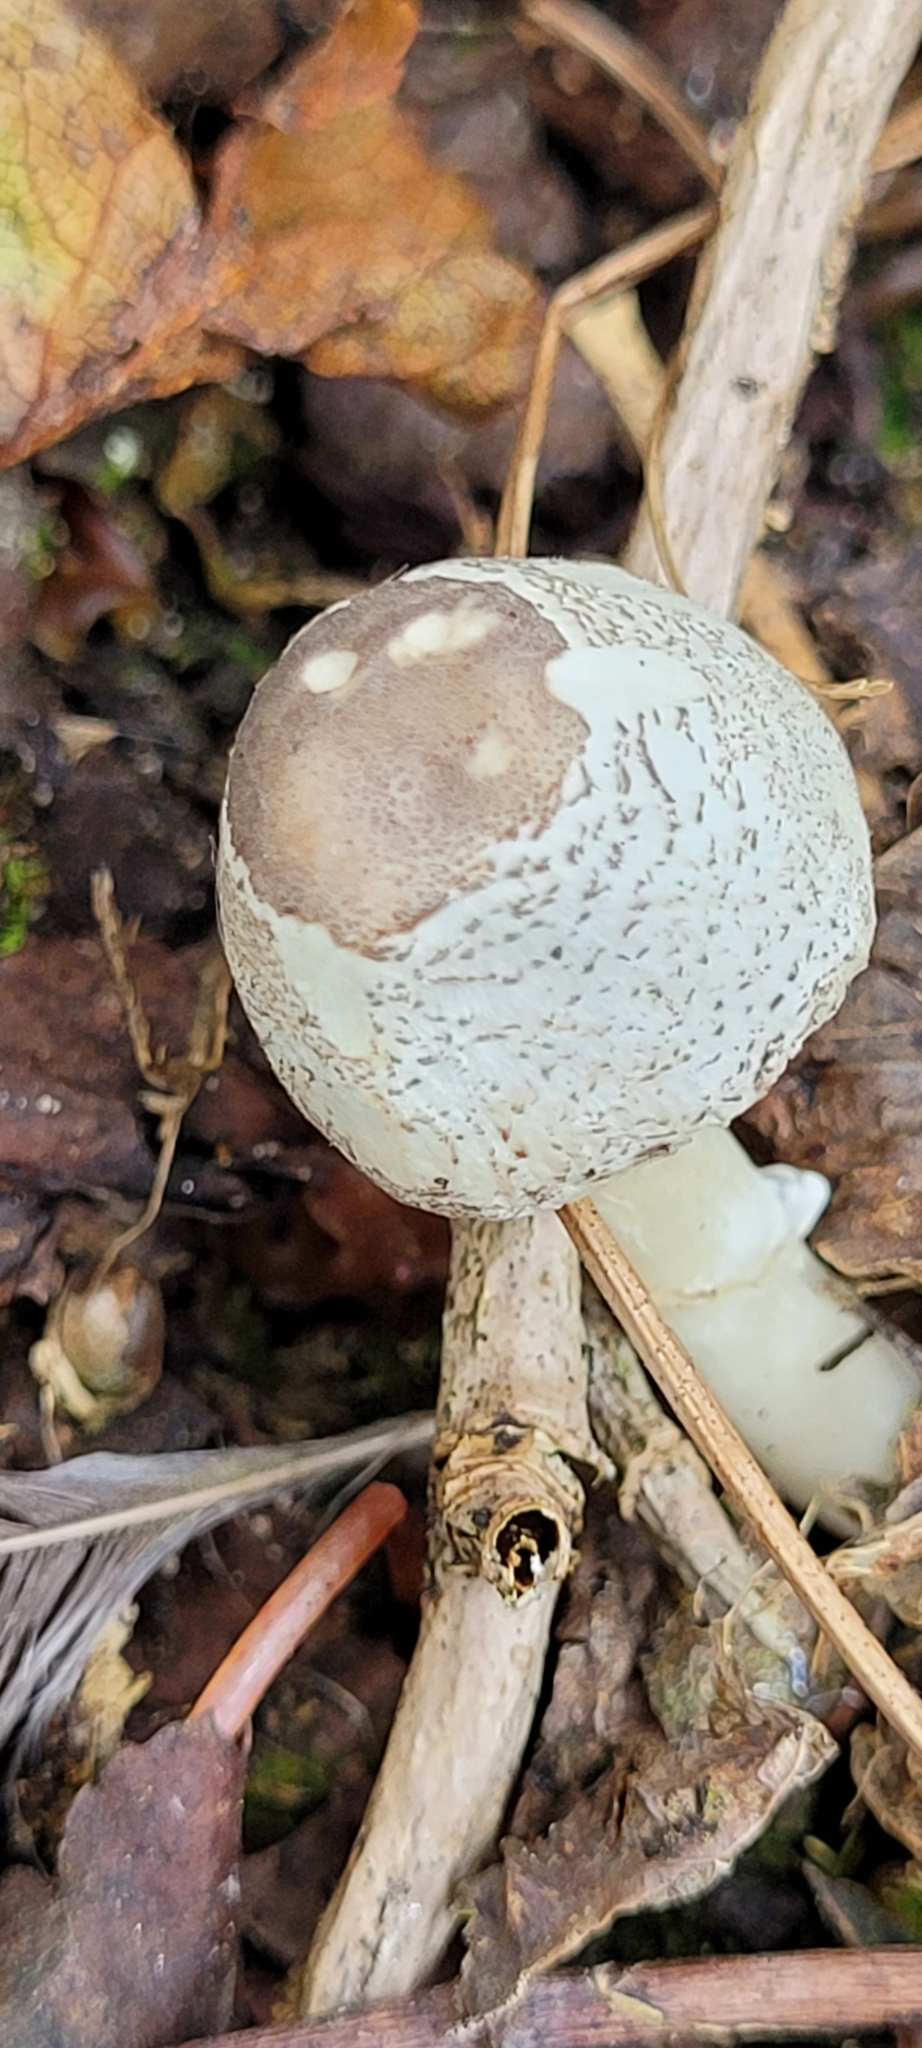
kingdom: Fungi
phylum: Basidiomycota
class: Agaricomycetes
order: Agaricales
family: Agaricaceae
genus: Leucocoprinus
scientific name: Leucocoprinus brebissonii
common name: Skullcap dapperling
